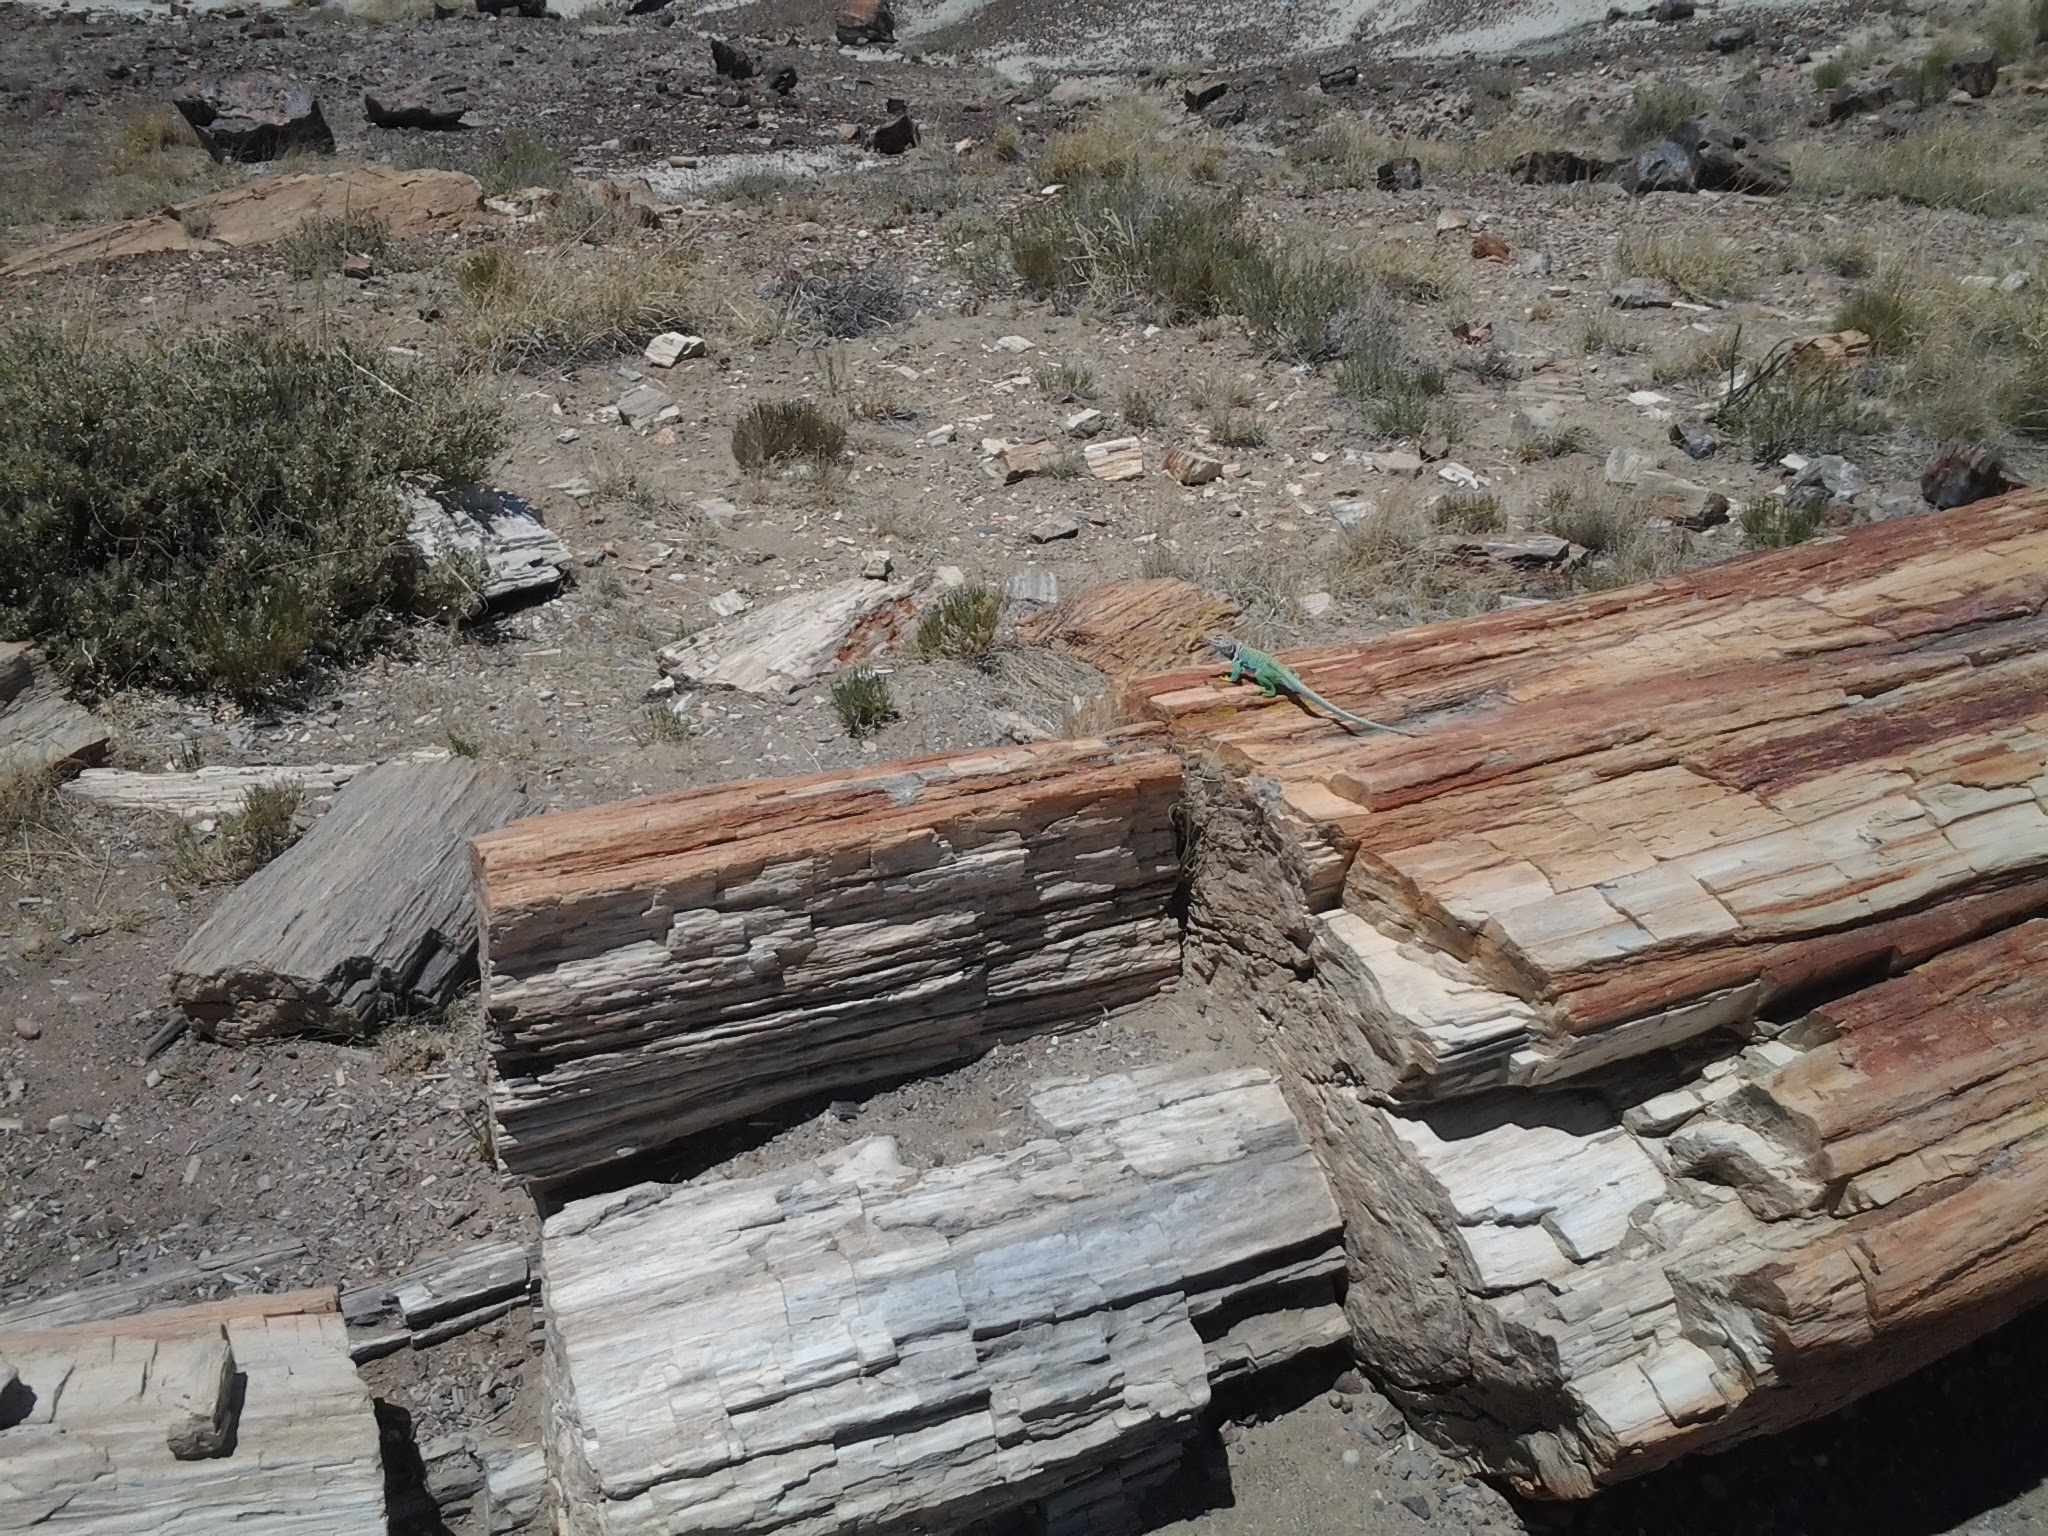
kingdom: Animalia
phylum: Chordata
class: Squamata
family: Crotaphytidae
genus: Crotaphytus
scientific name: Crotaphytus collaris
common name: Collared lizard
